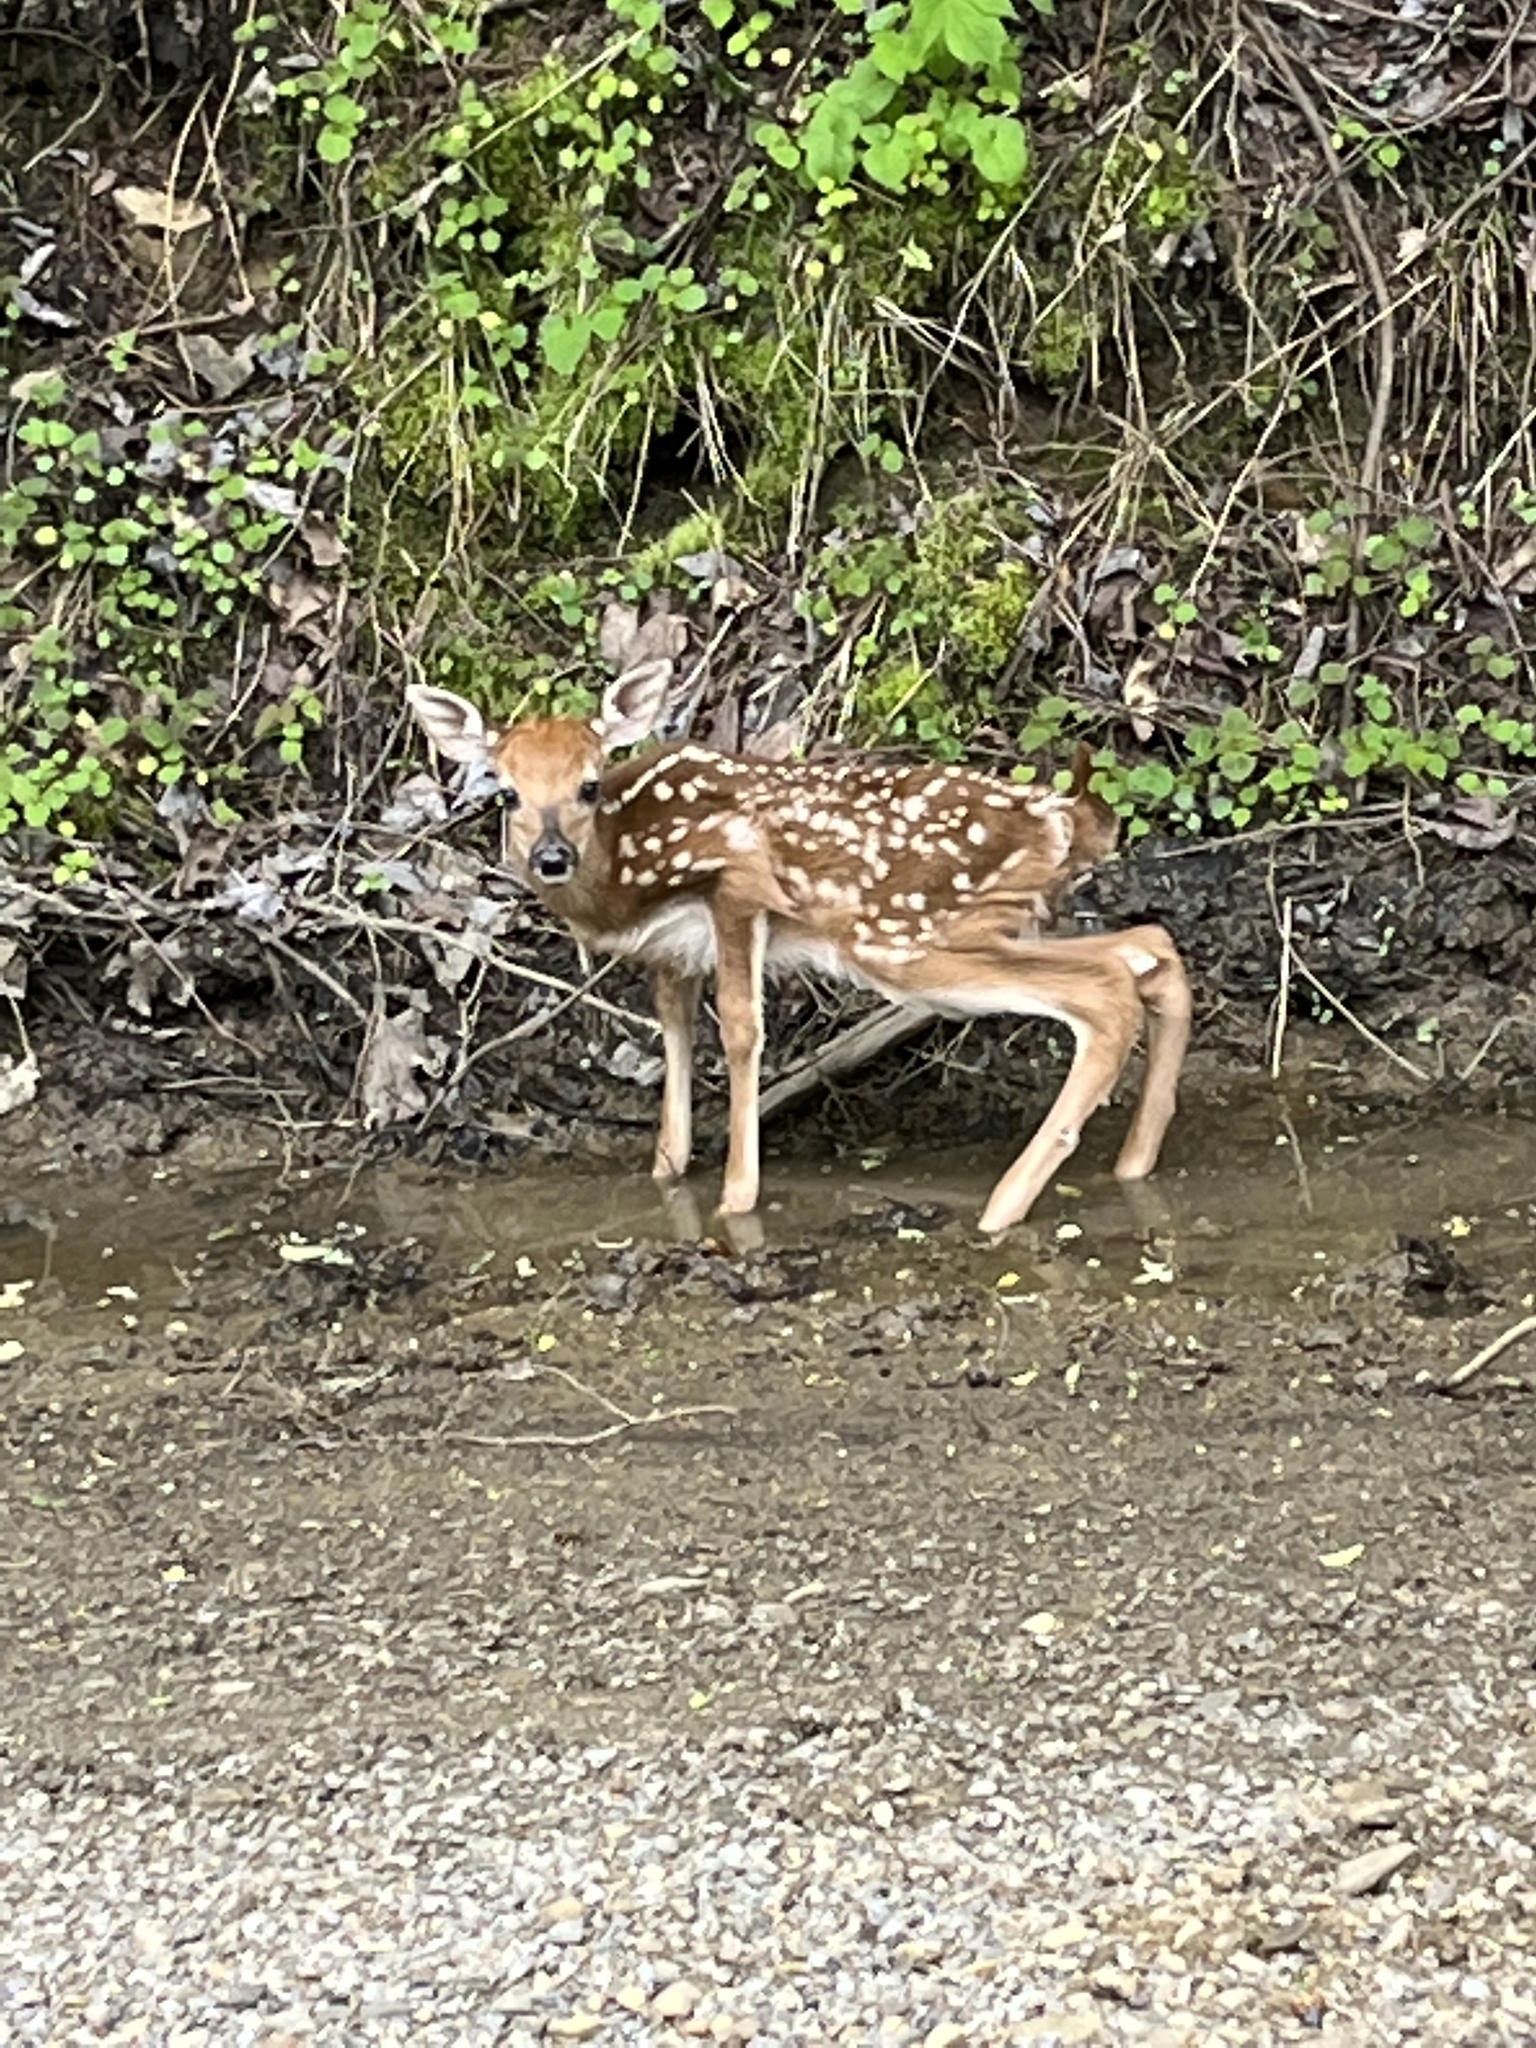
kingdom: Animalia
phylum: Chordata
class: Mammalia
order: Artiodactyla
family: Cervidae
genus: Odocoileus
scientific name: Odocoileus virginianus
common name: White-tailed deer
